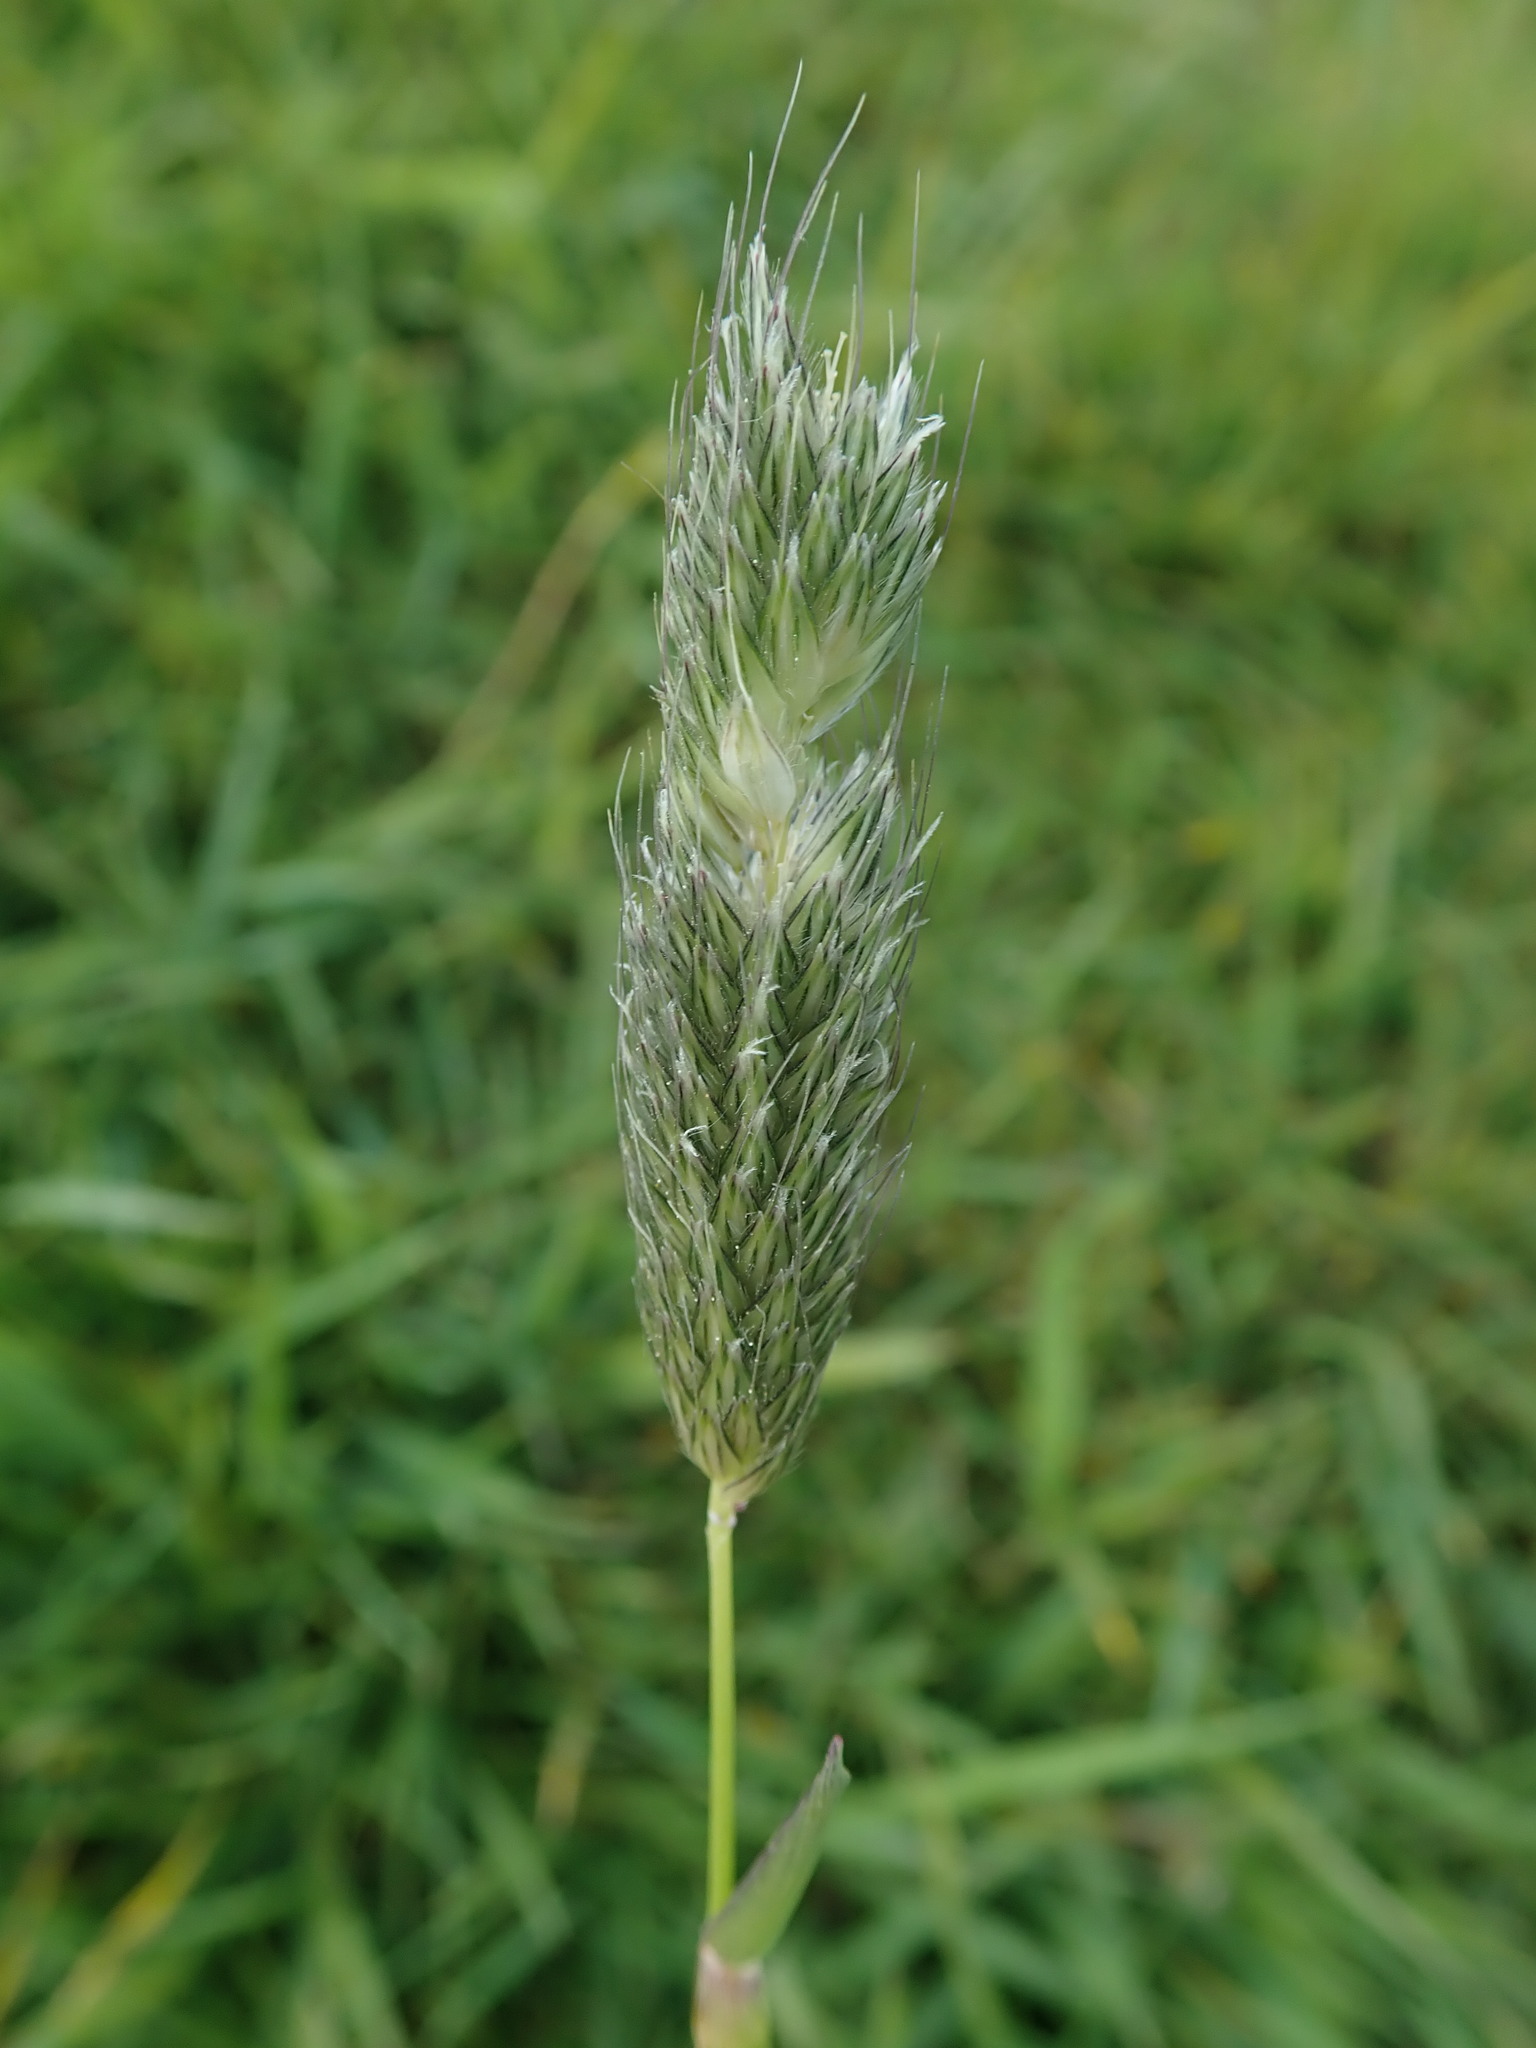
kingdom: Plantae
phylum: Tracheophyta
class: Liliopsida
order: Poales
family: Poaceae
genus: Alopecurus
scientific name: Alopecurus pratensis
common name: Meadow foxtail
